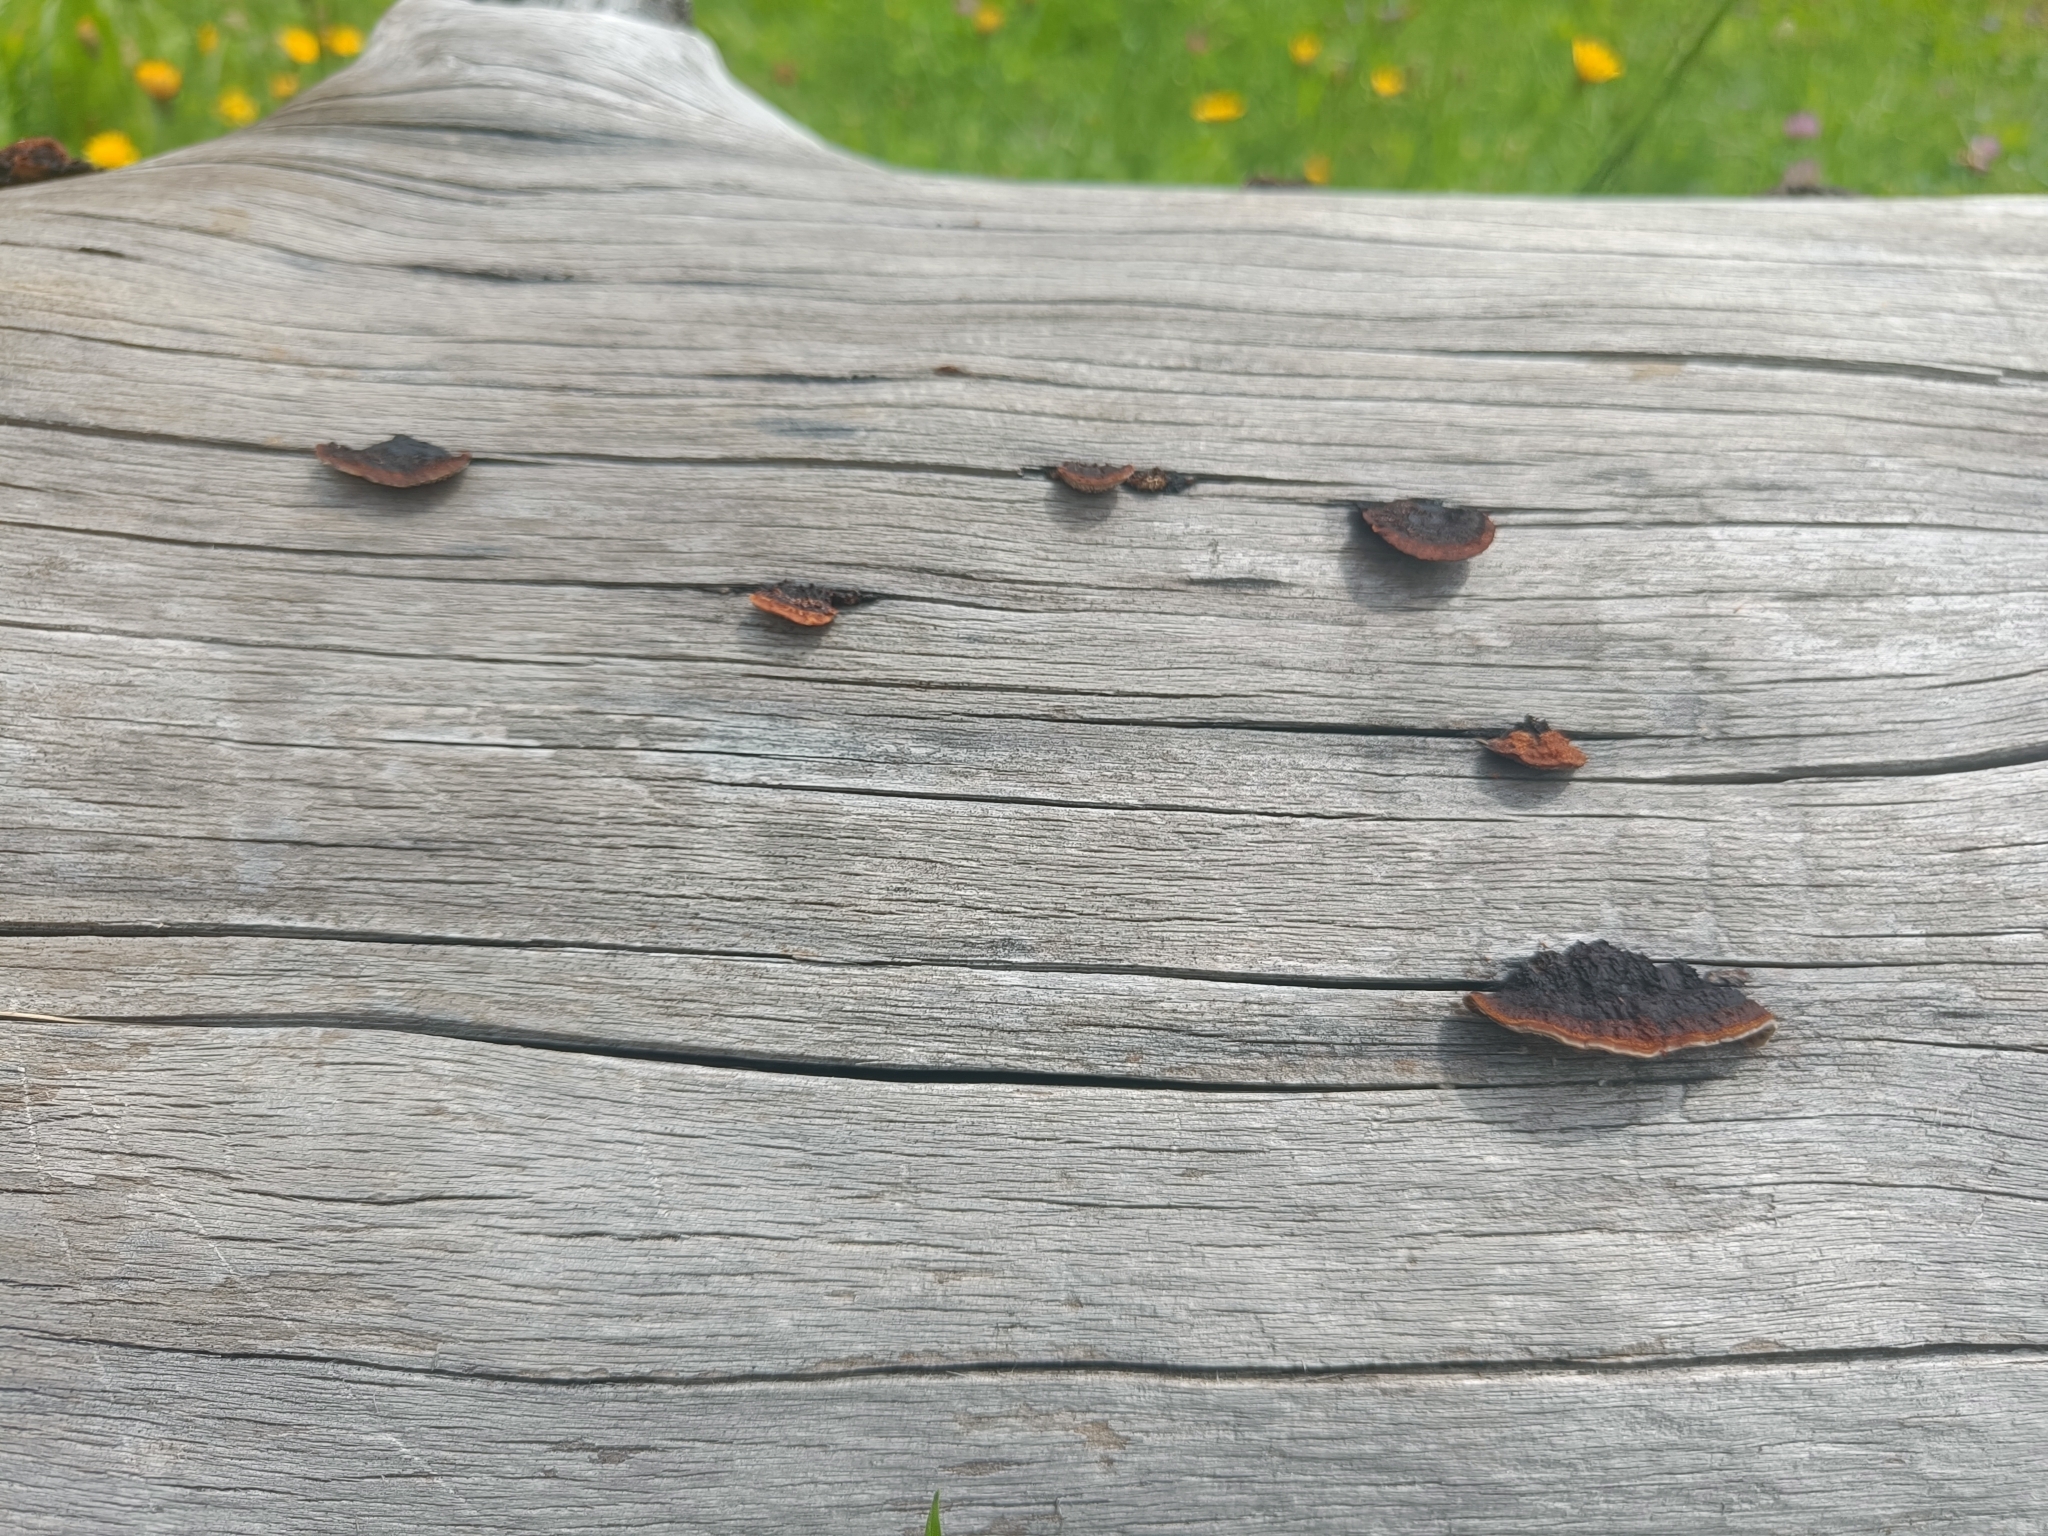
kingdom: Fungi
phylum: Basidiomycota
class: Agaricomycetes
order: Gloeophyllales
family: Gloeophyllaceae
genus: Gloeophyllum
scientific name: Gloeophyllum sepiarium
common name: Conifer mazegill
